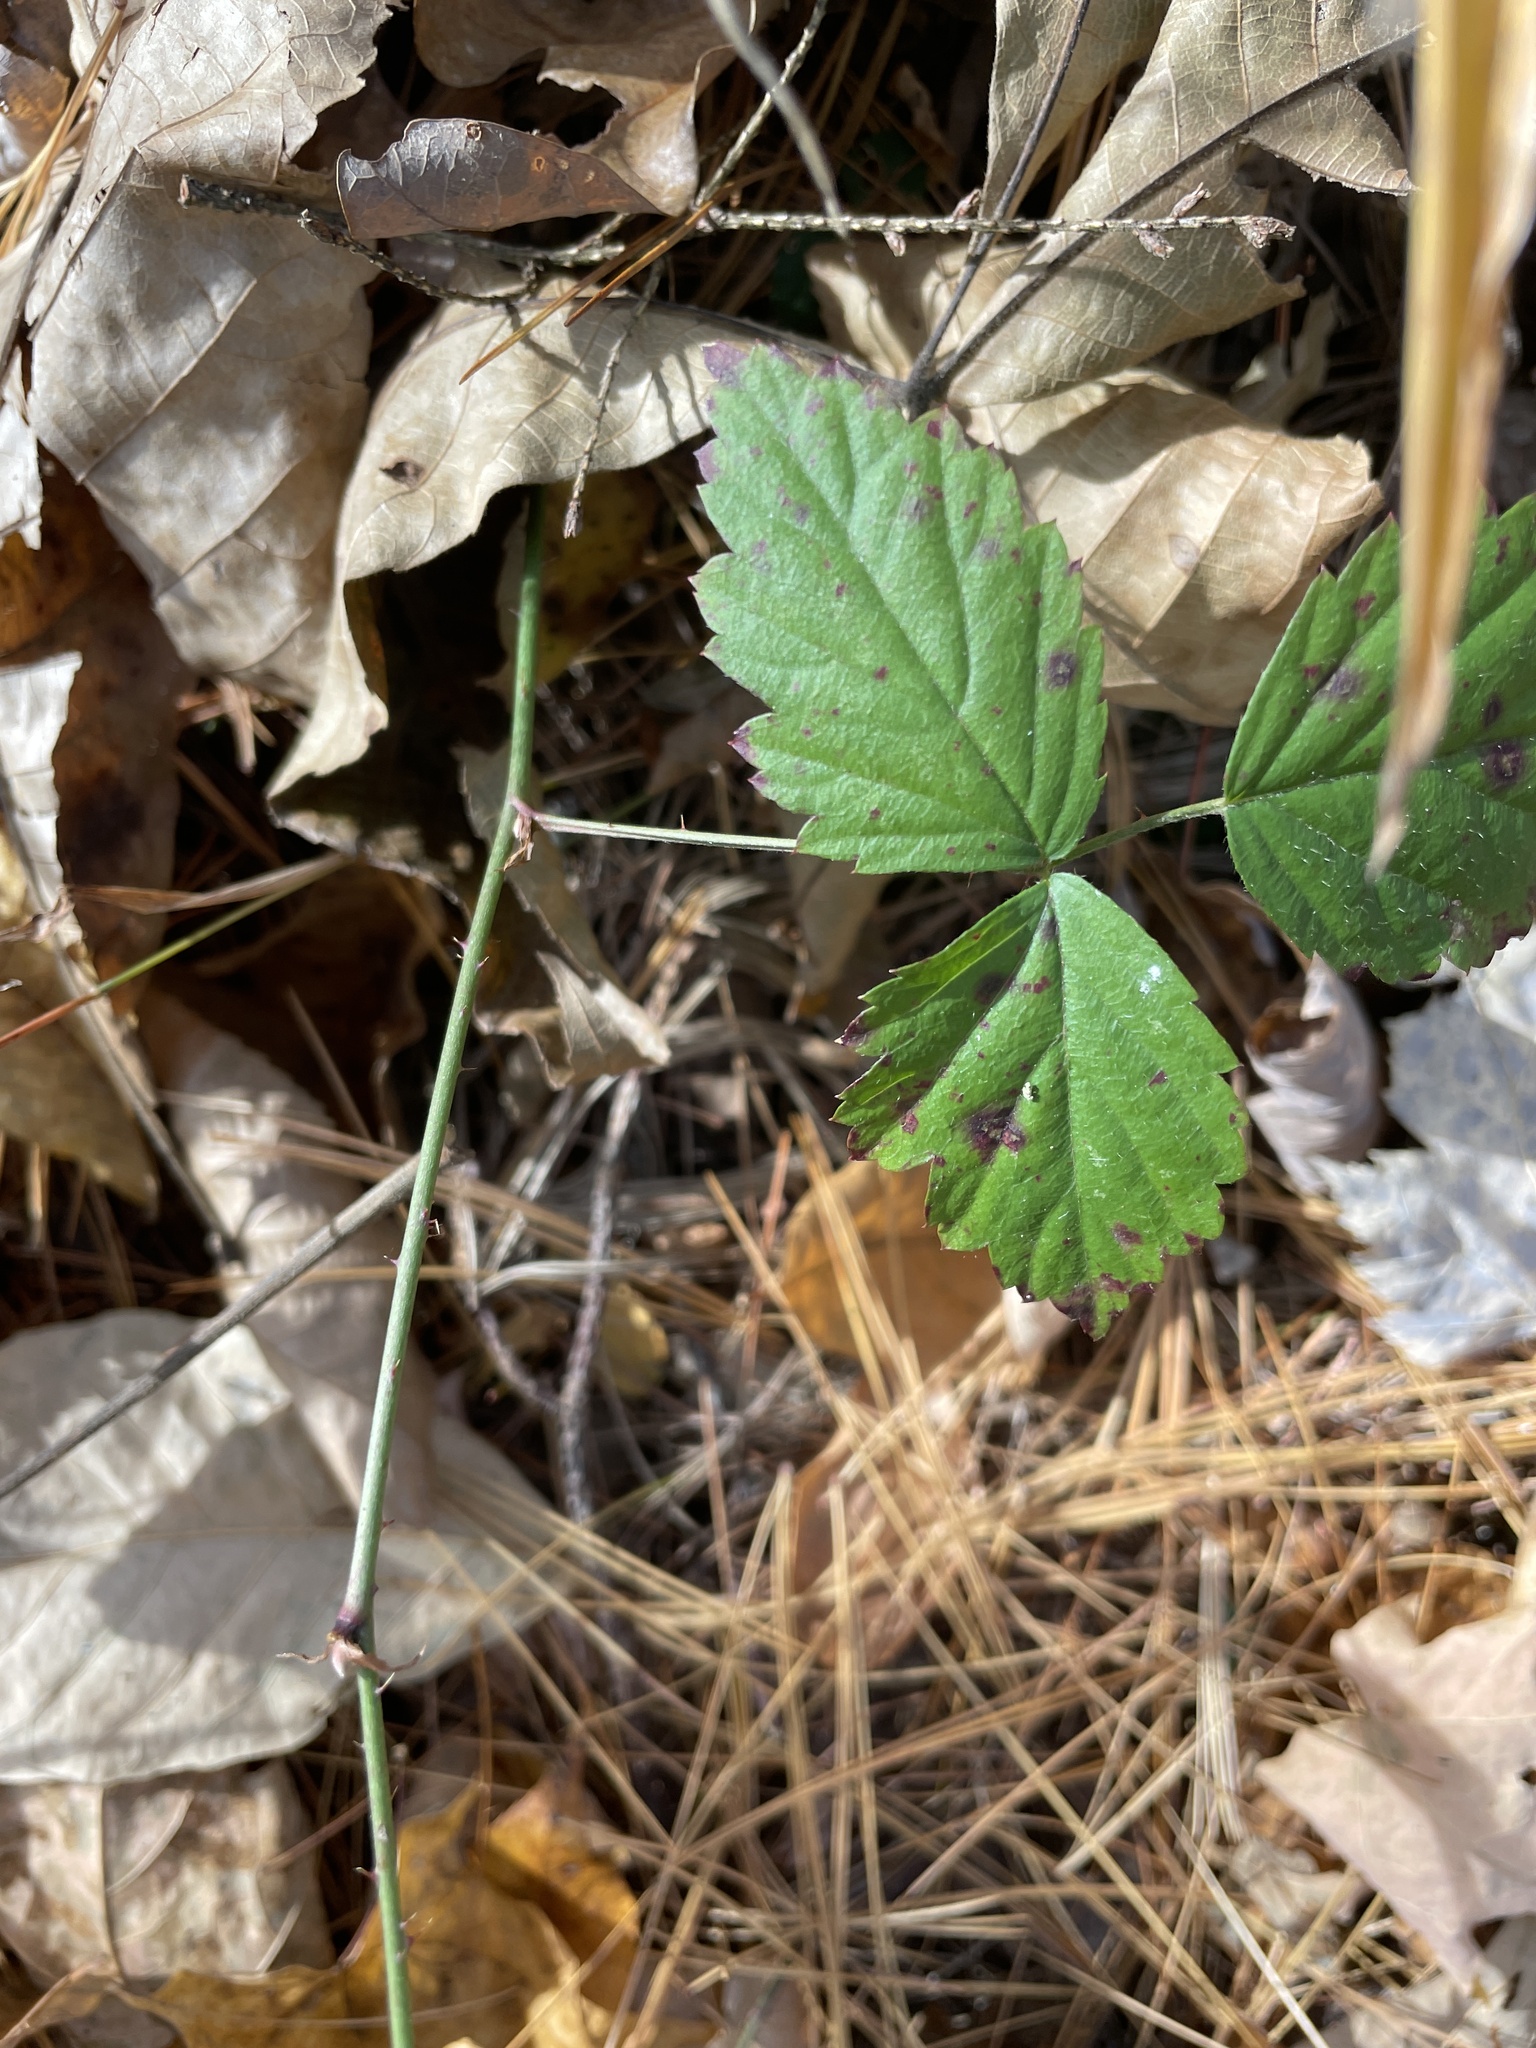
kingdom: Plantae
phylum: Tracheophyta
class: Magnoliopsida
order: Rosales
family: Rosaceae
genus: Rubus
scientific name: Rubus flagellaris
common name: American dewberry
